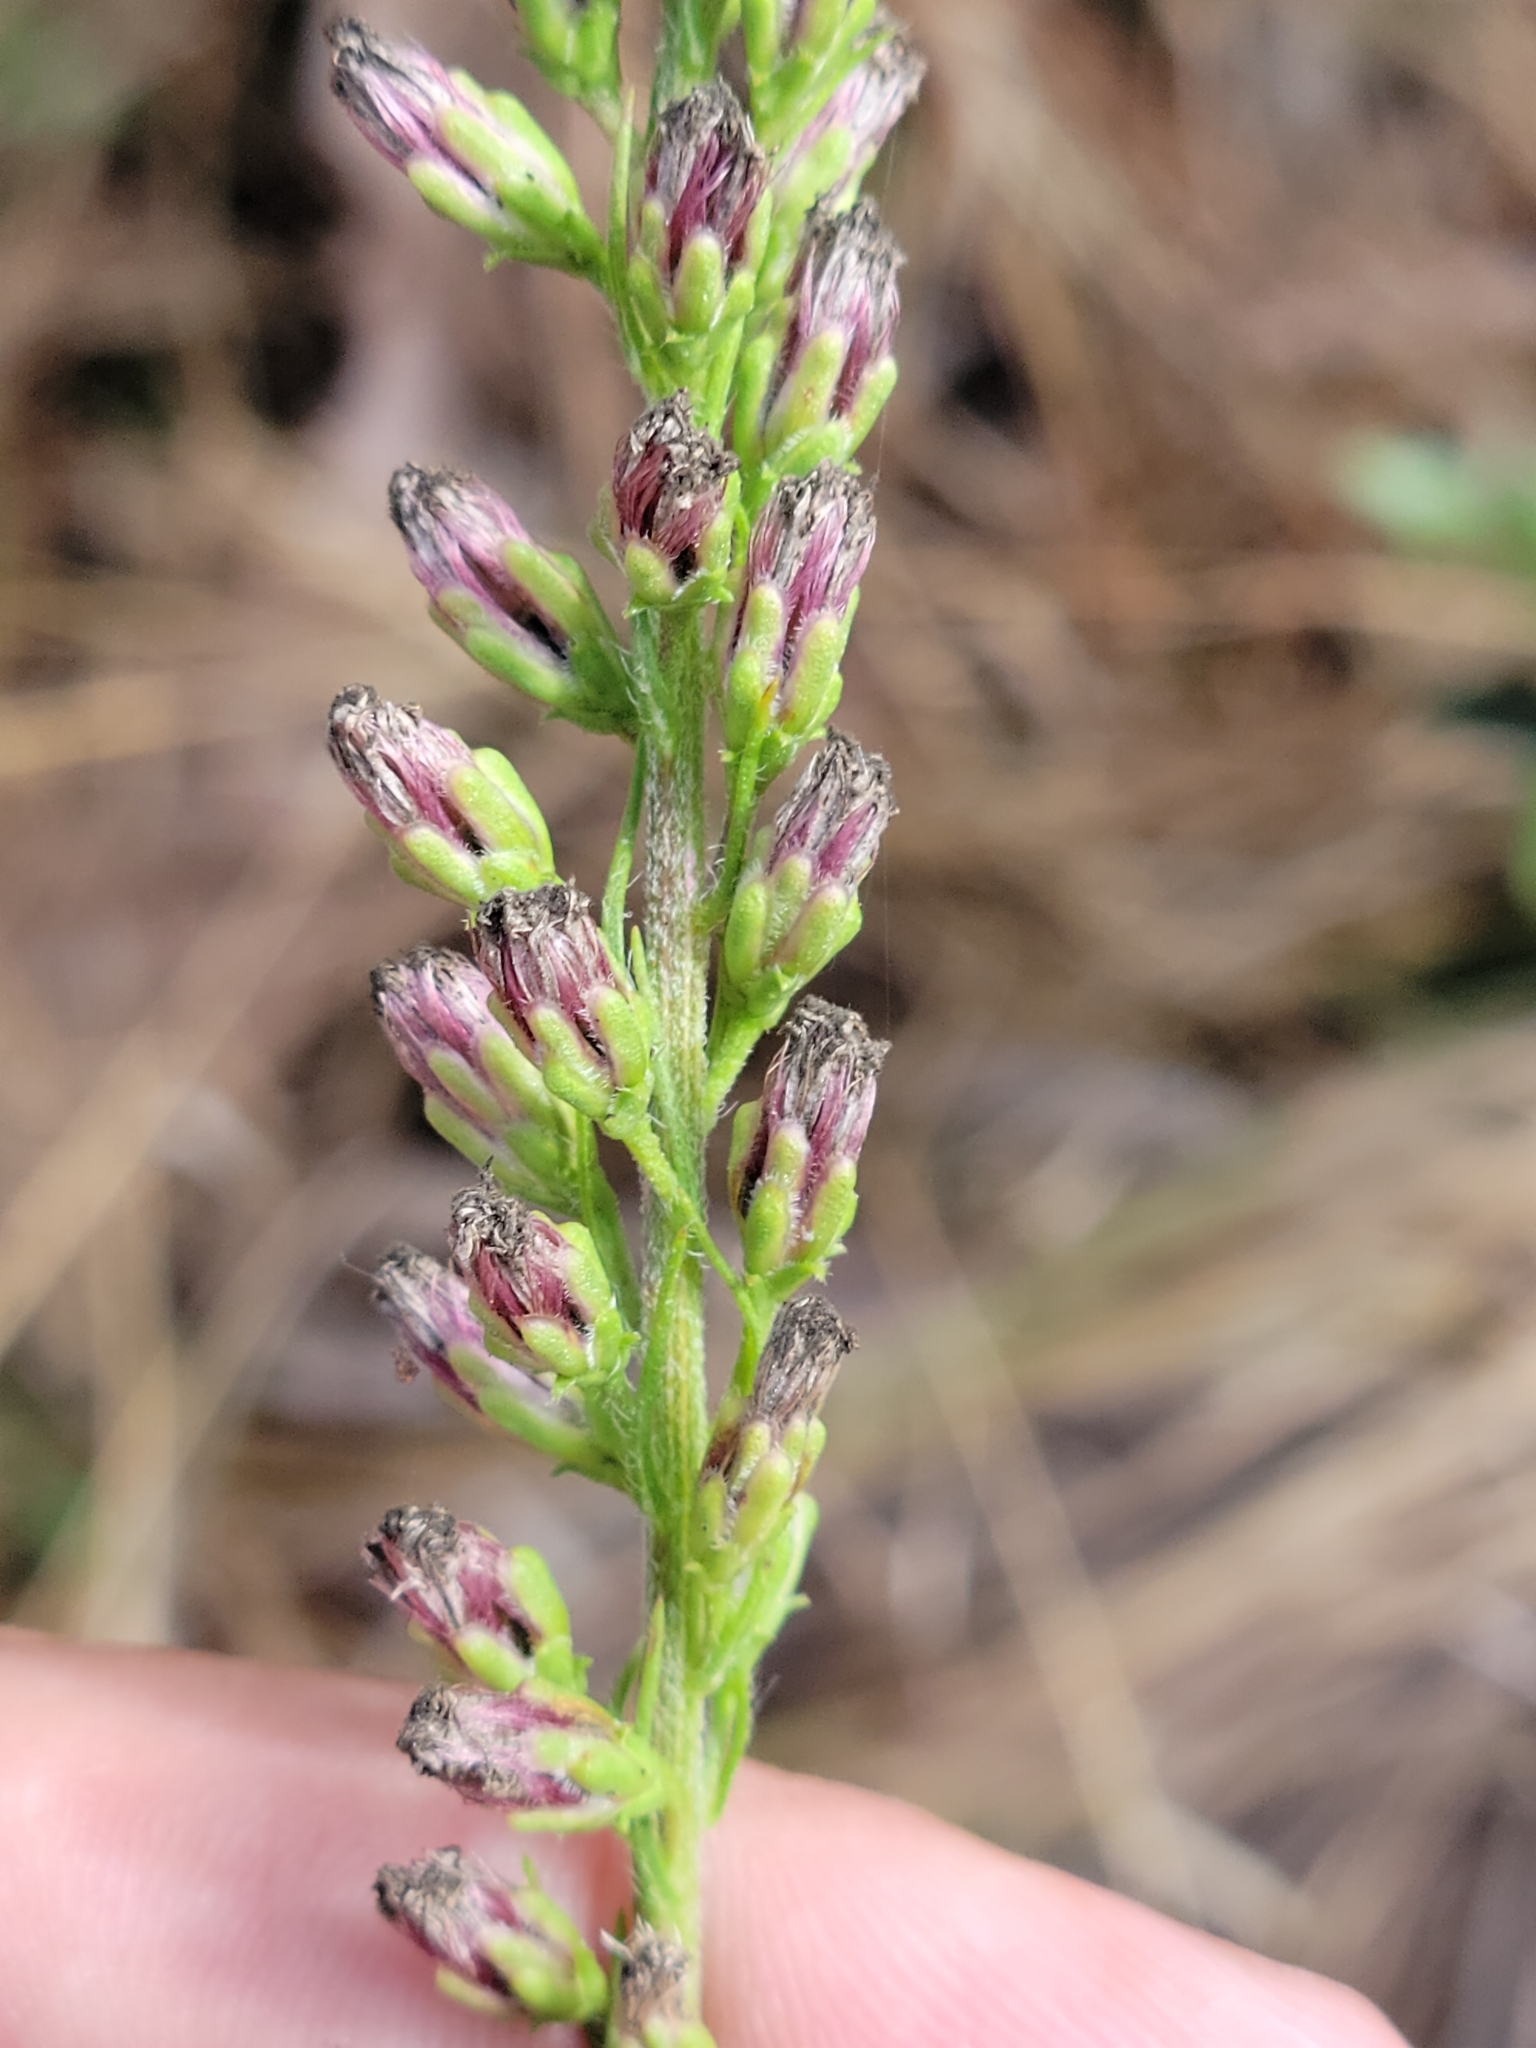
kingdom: Plantae
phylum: Tracheophyta
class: Magnoliopsida
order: Asterales
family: Asteraceae
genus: Liatris
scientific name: Liatris gracilis
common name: Slender gayfeather
